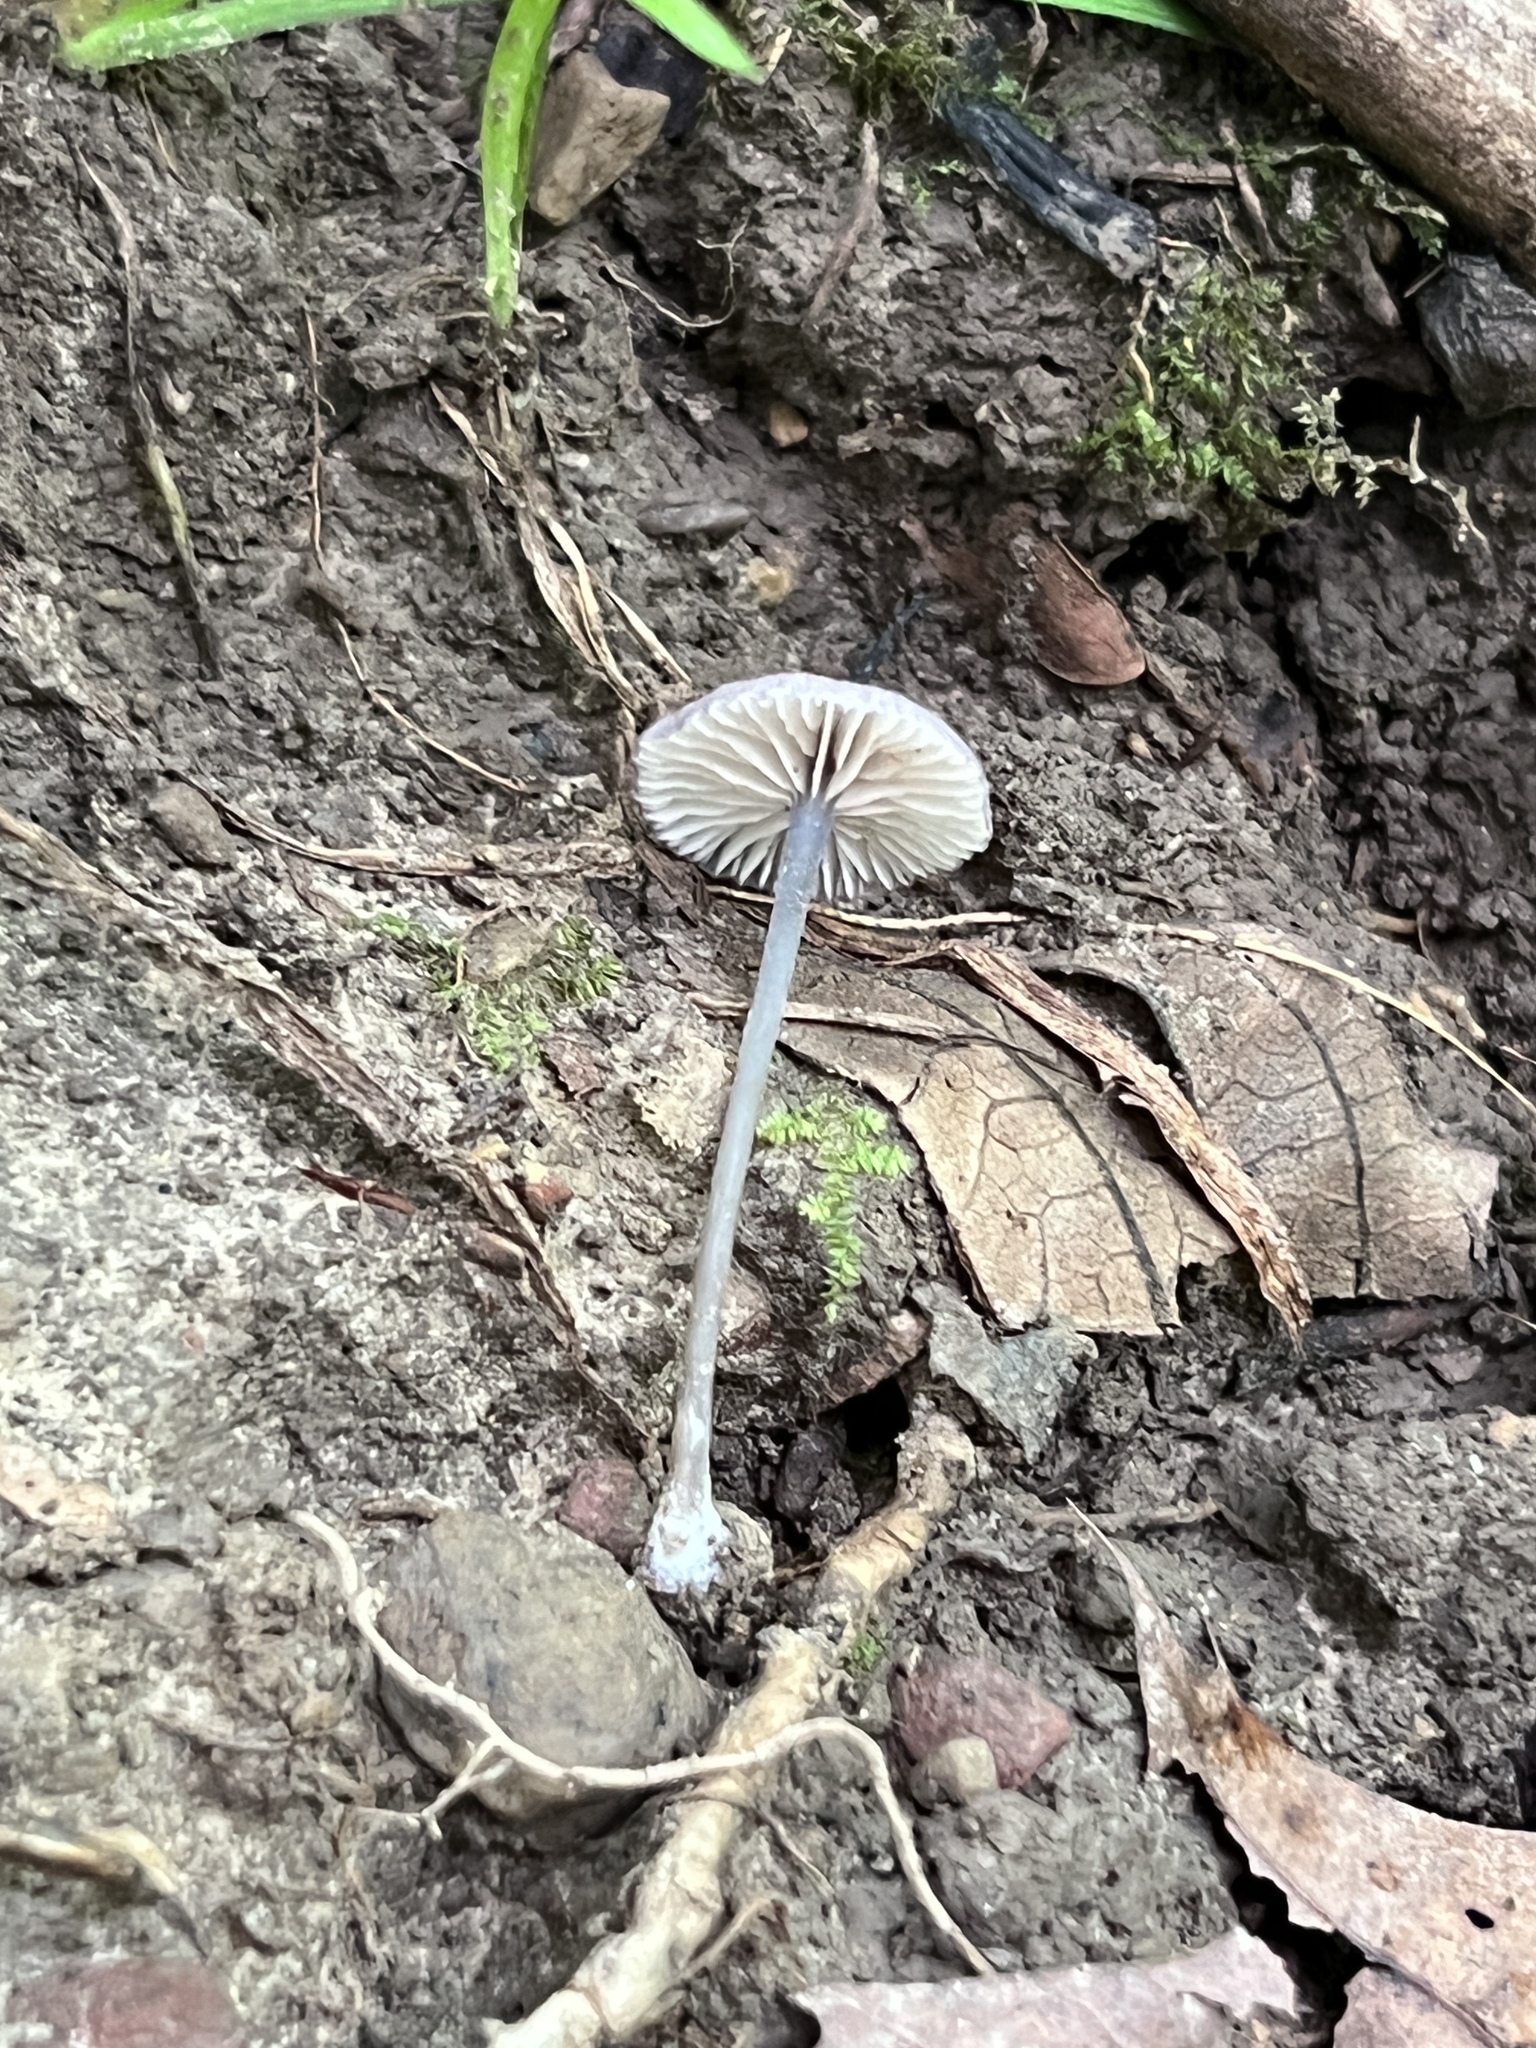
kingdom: Fungi
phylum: Basidiomycota
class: Agaricomycetes
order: Agaricales
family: Entolomataceae
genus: Entoloma
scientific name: Entoloma perumbilicatum
